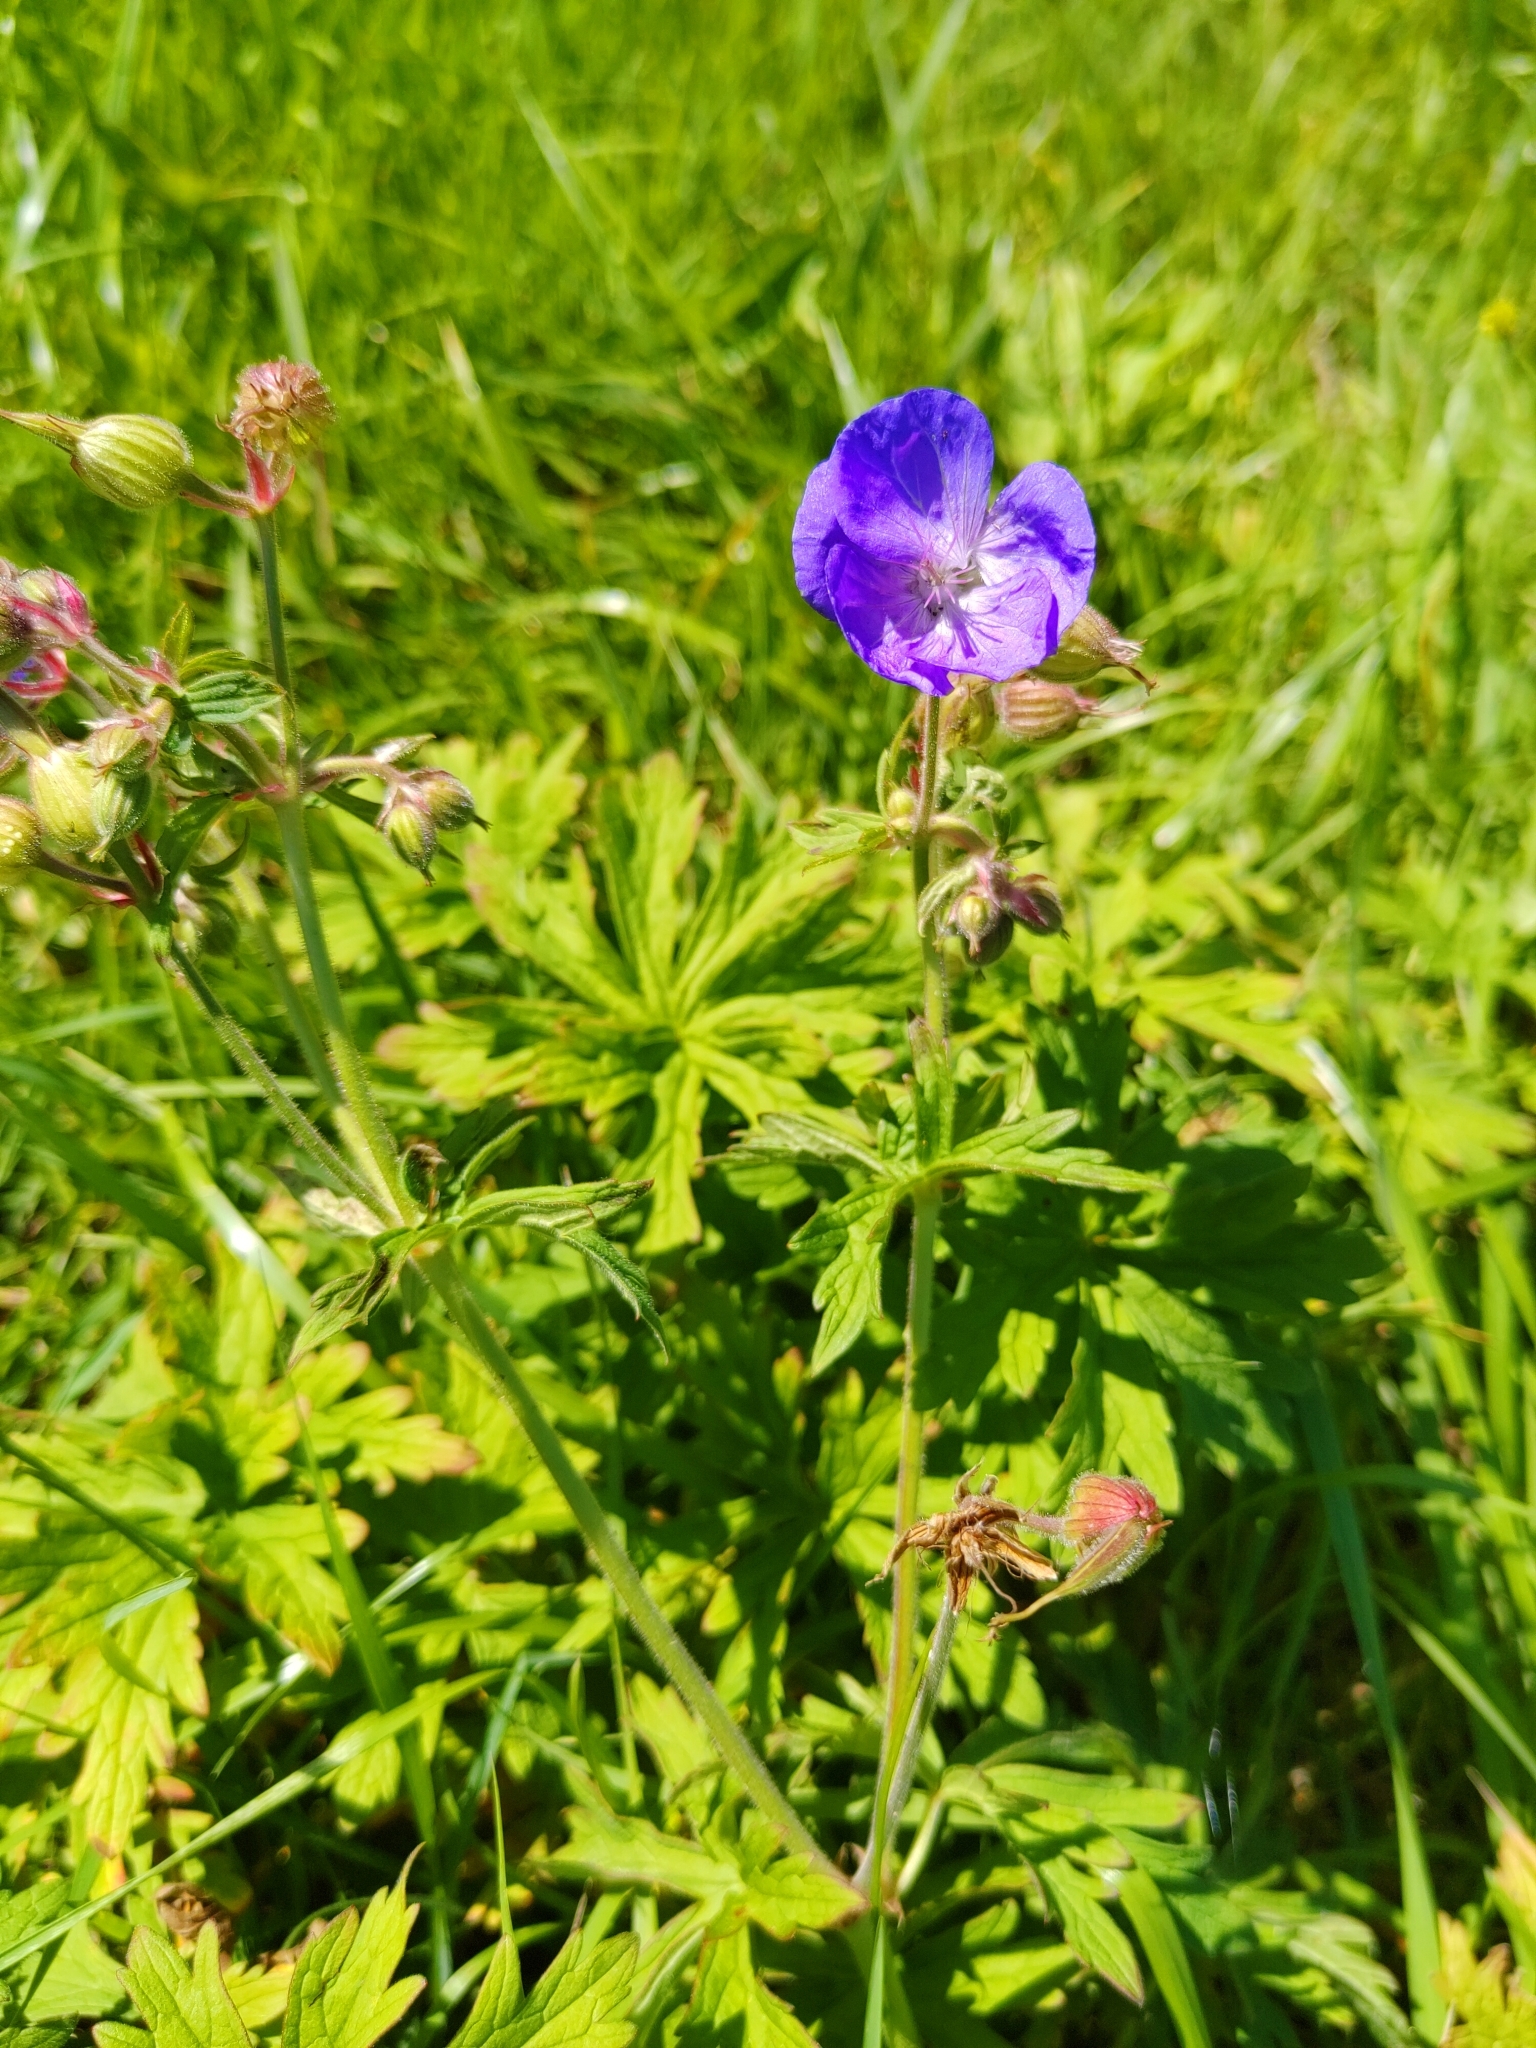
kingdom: Plantae
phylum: Tracheophyta
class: Magnoliopsida
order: Geraniales
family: Geraniaceae
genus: Geranium
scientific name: Geranium pratense
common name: Meadow crane's-bill
